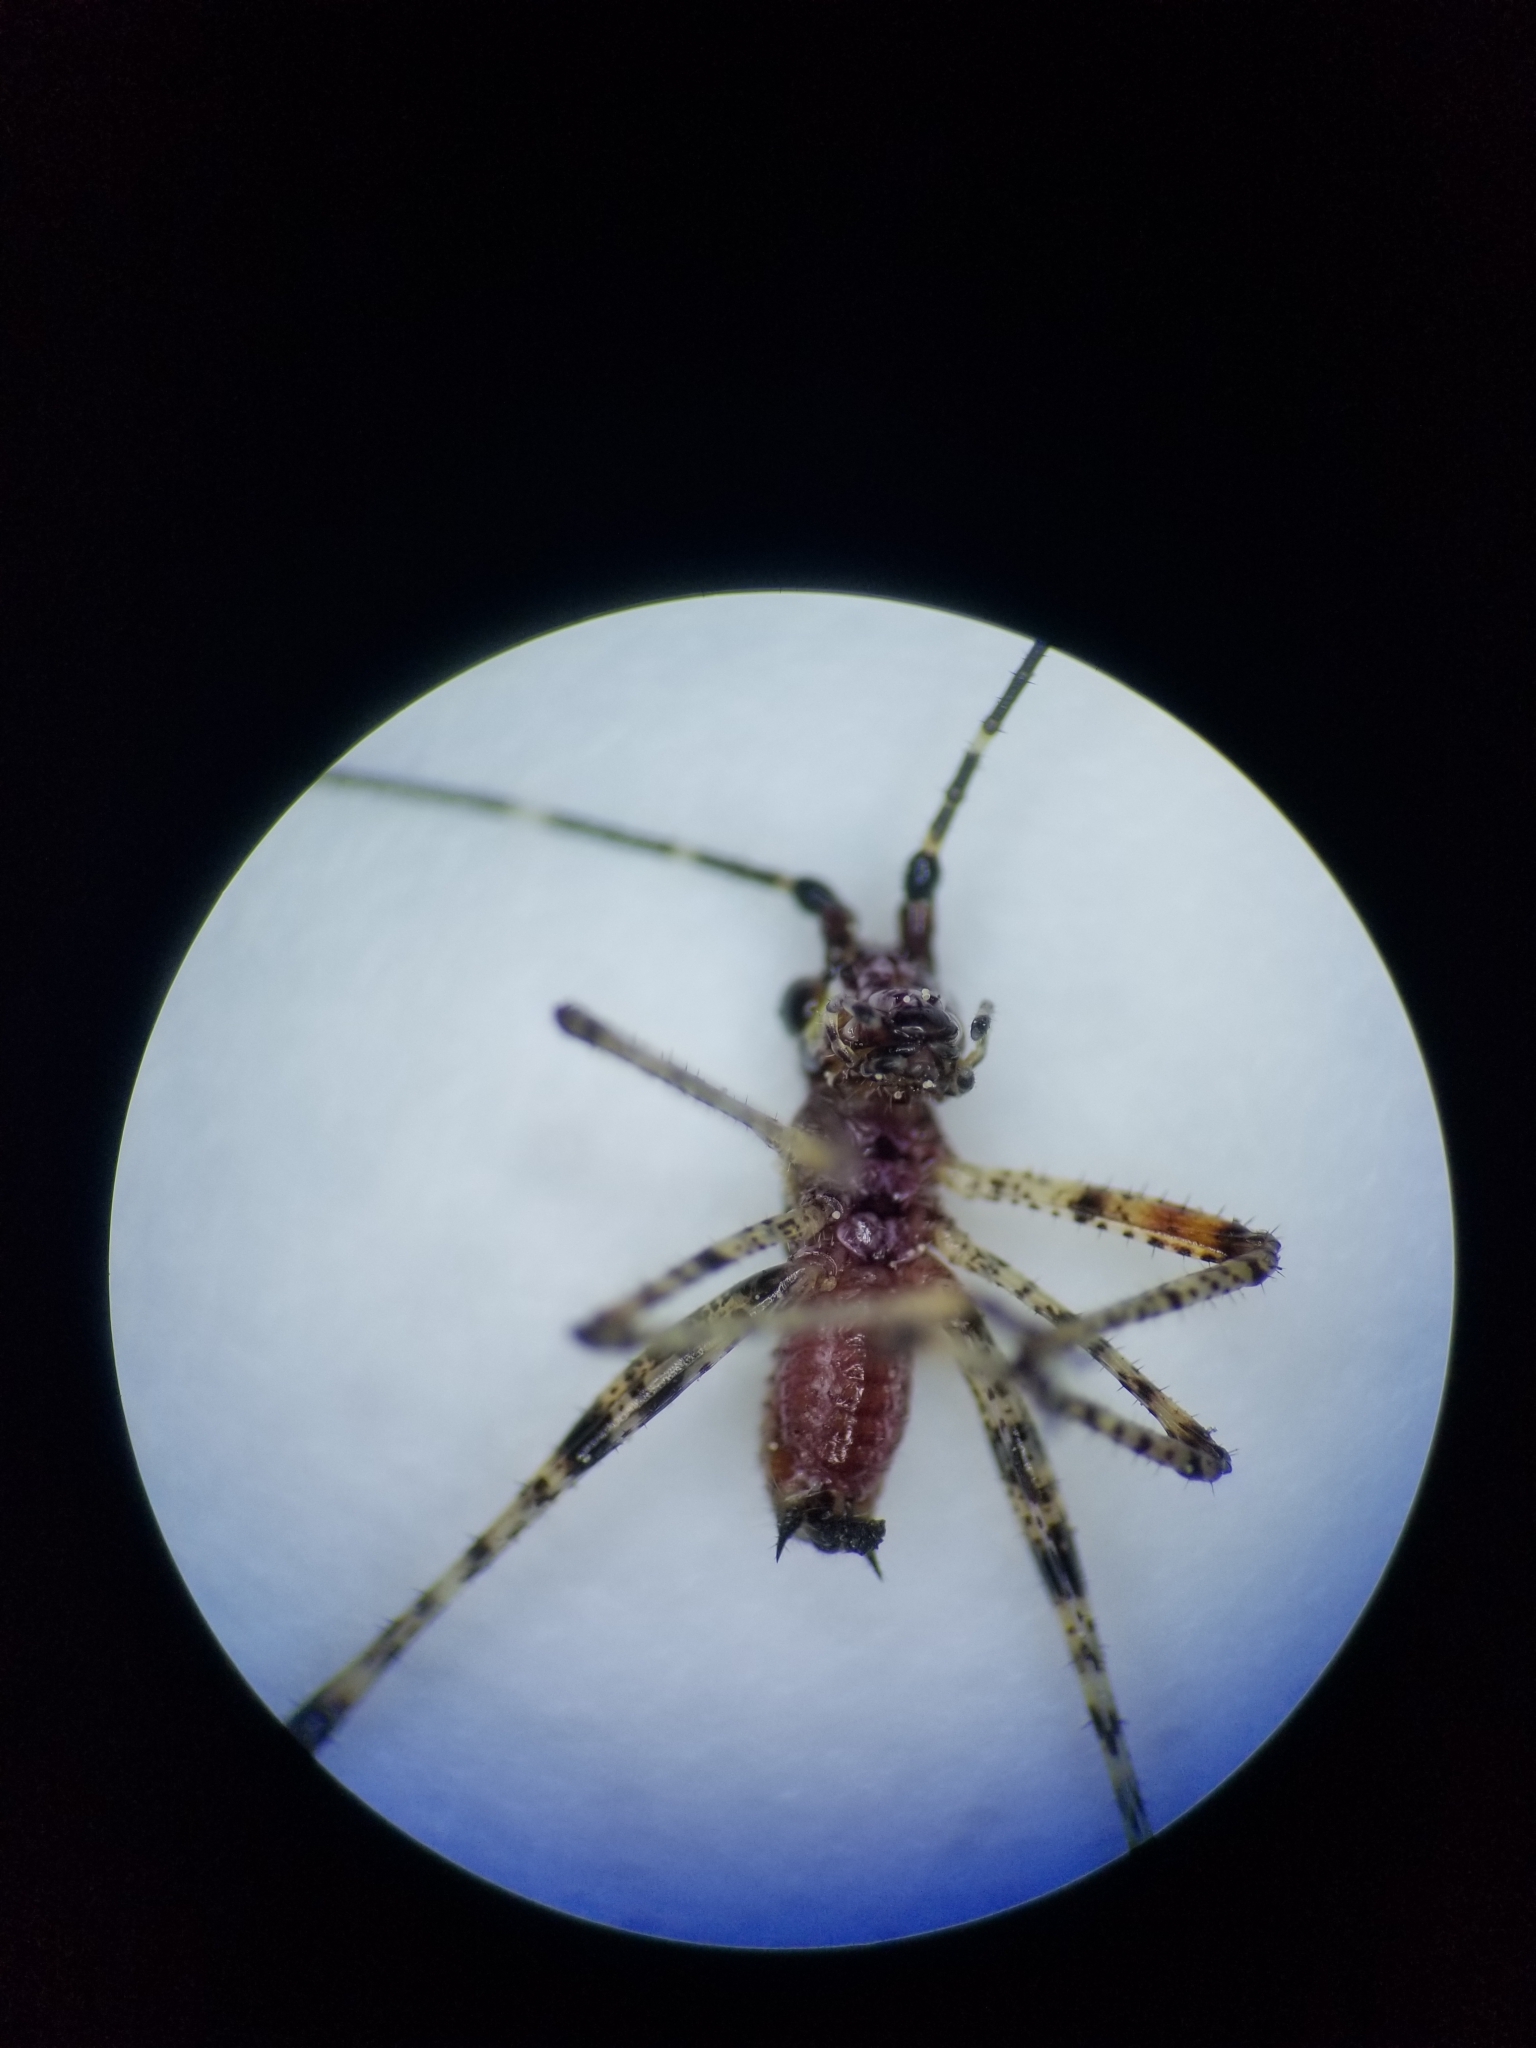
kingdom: Animalia
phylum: Arthropoda
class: Insecta
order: Orthoptera
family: Tettigoniidae
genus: Scudderia
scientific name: Scudderia furcata
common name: Fork-tailed bush katydid
